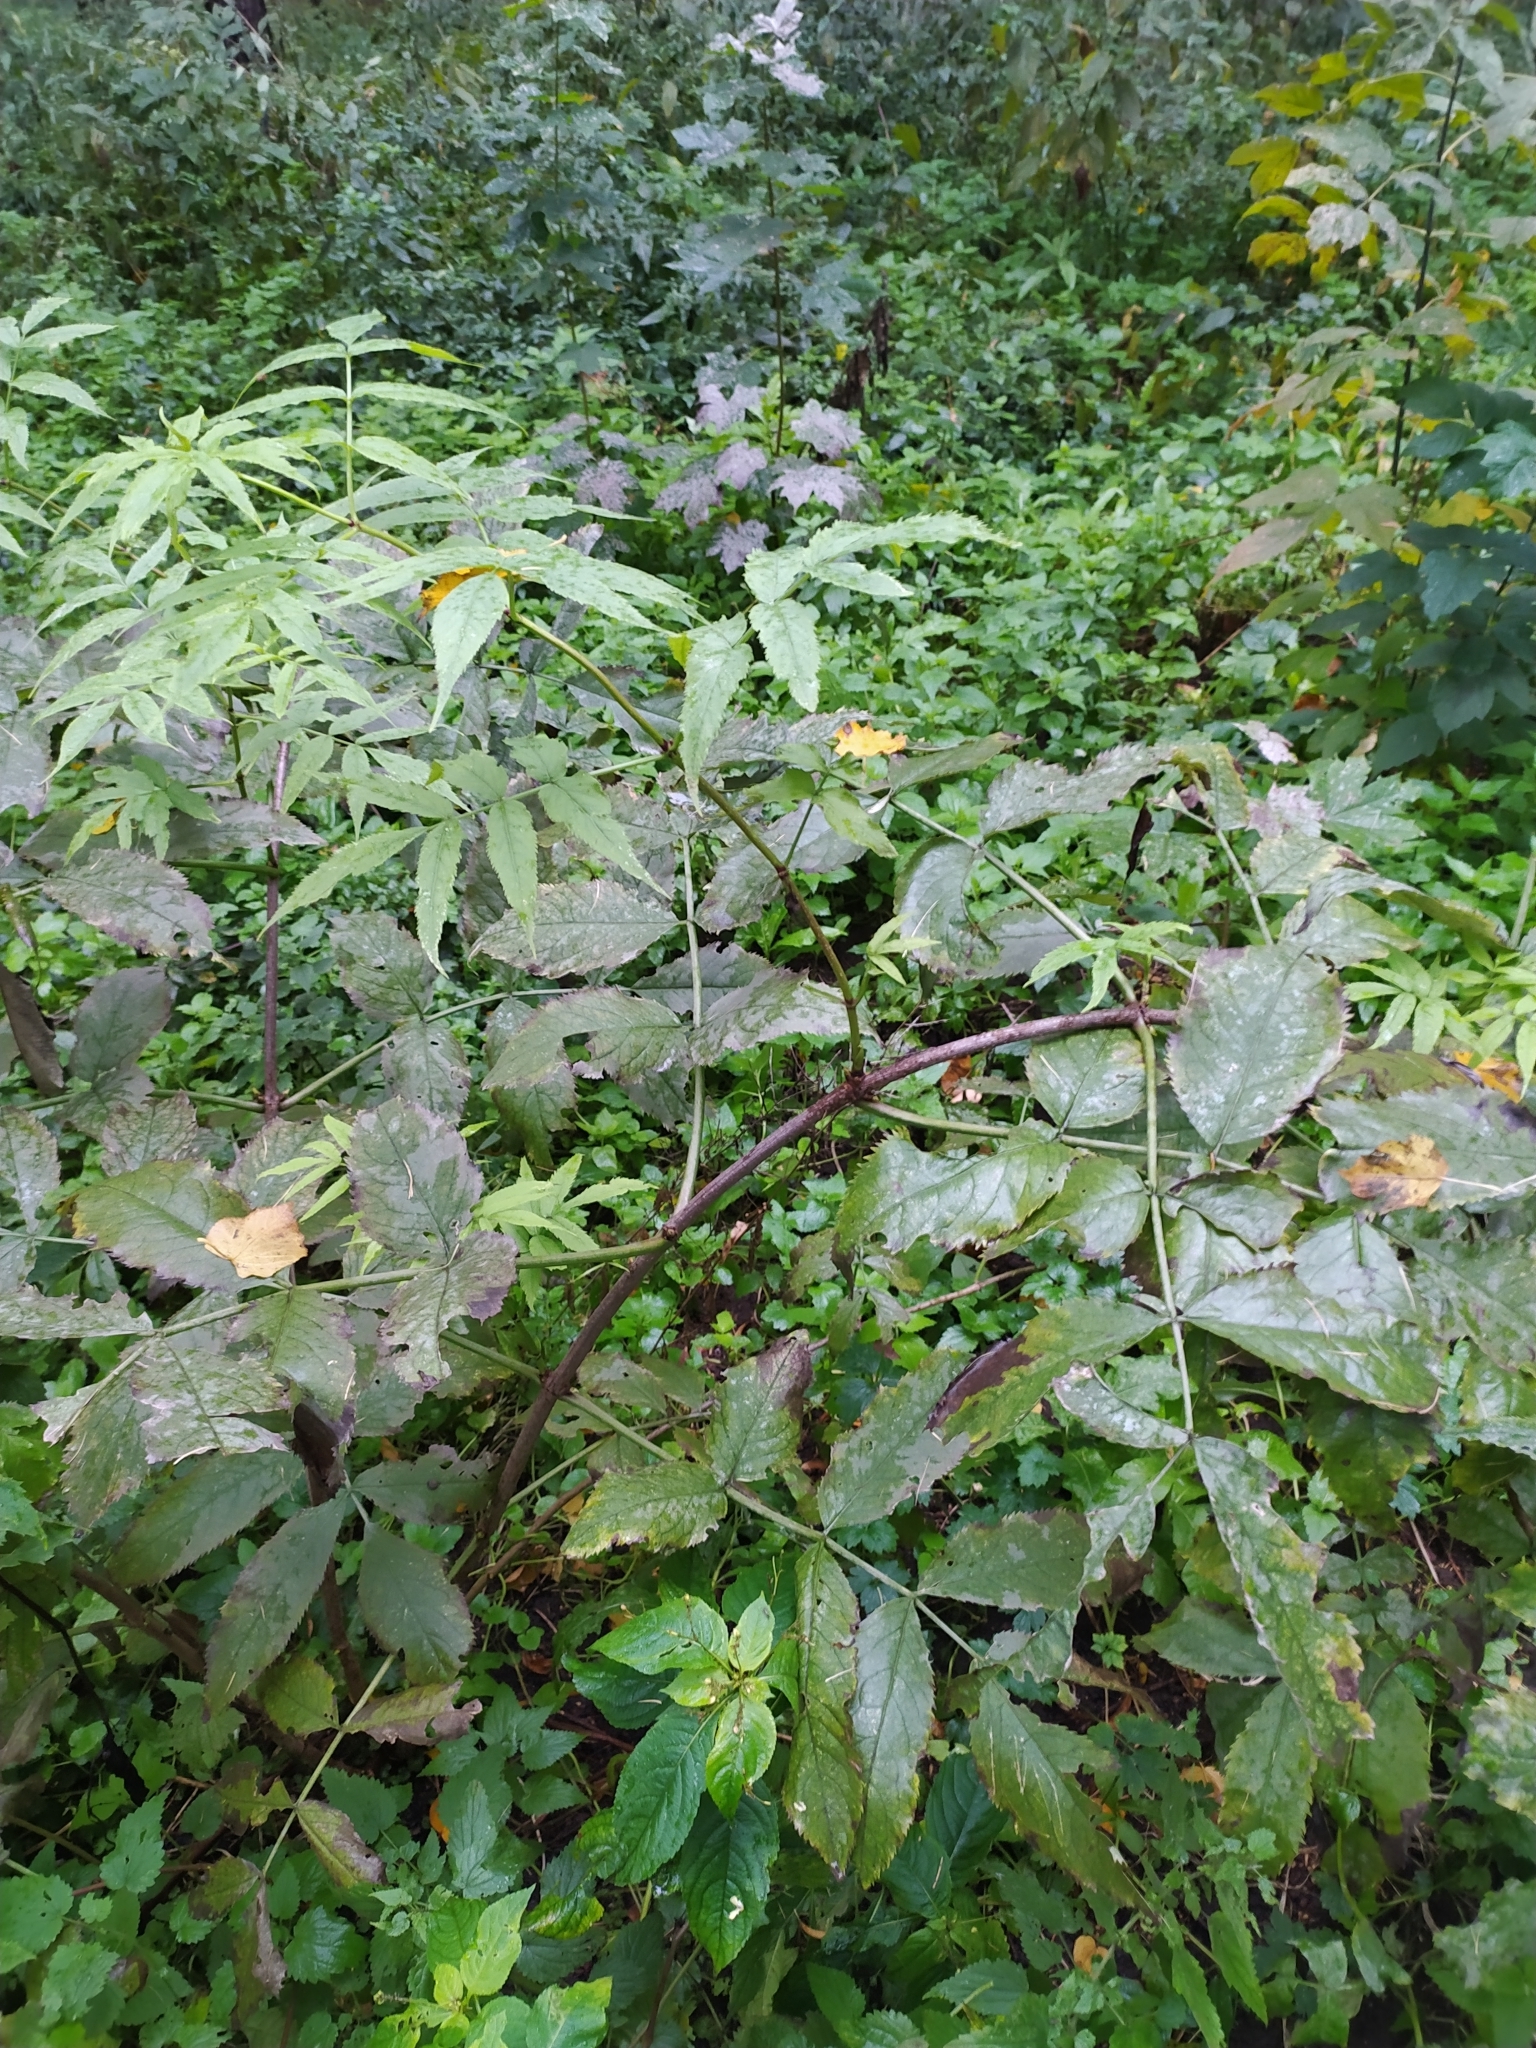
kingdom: Plantae
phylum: Tracheophyta
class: Magnoliopsida
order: Dipsacales
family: Viburnaceae
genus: Sambucus
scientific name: Sambucus racemosa
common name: Red-berried elder
